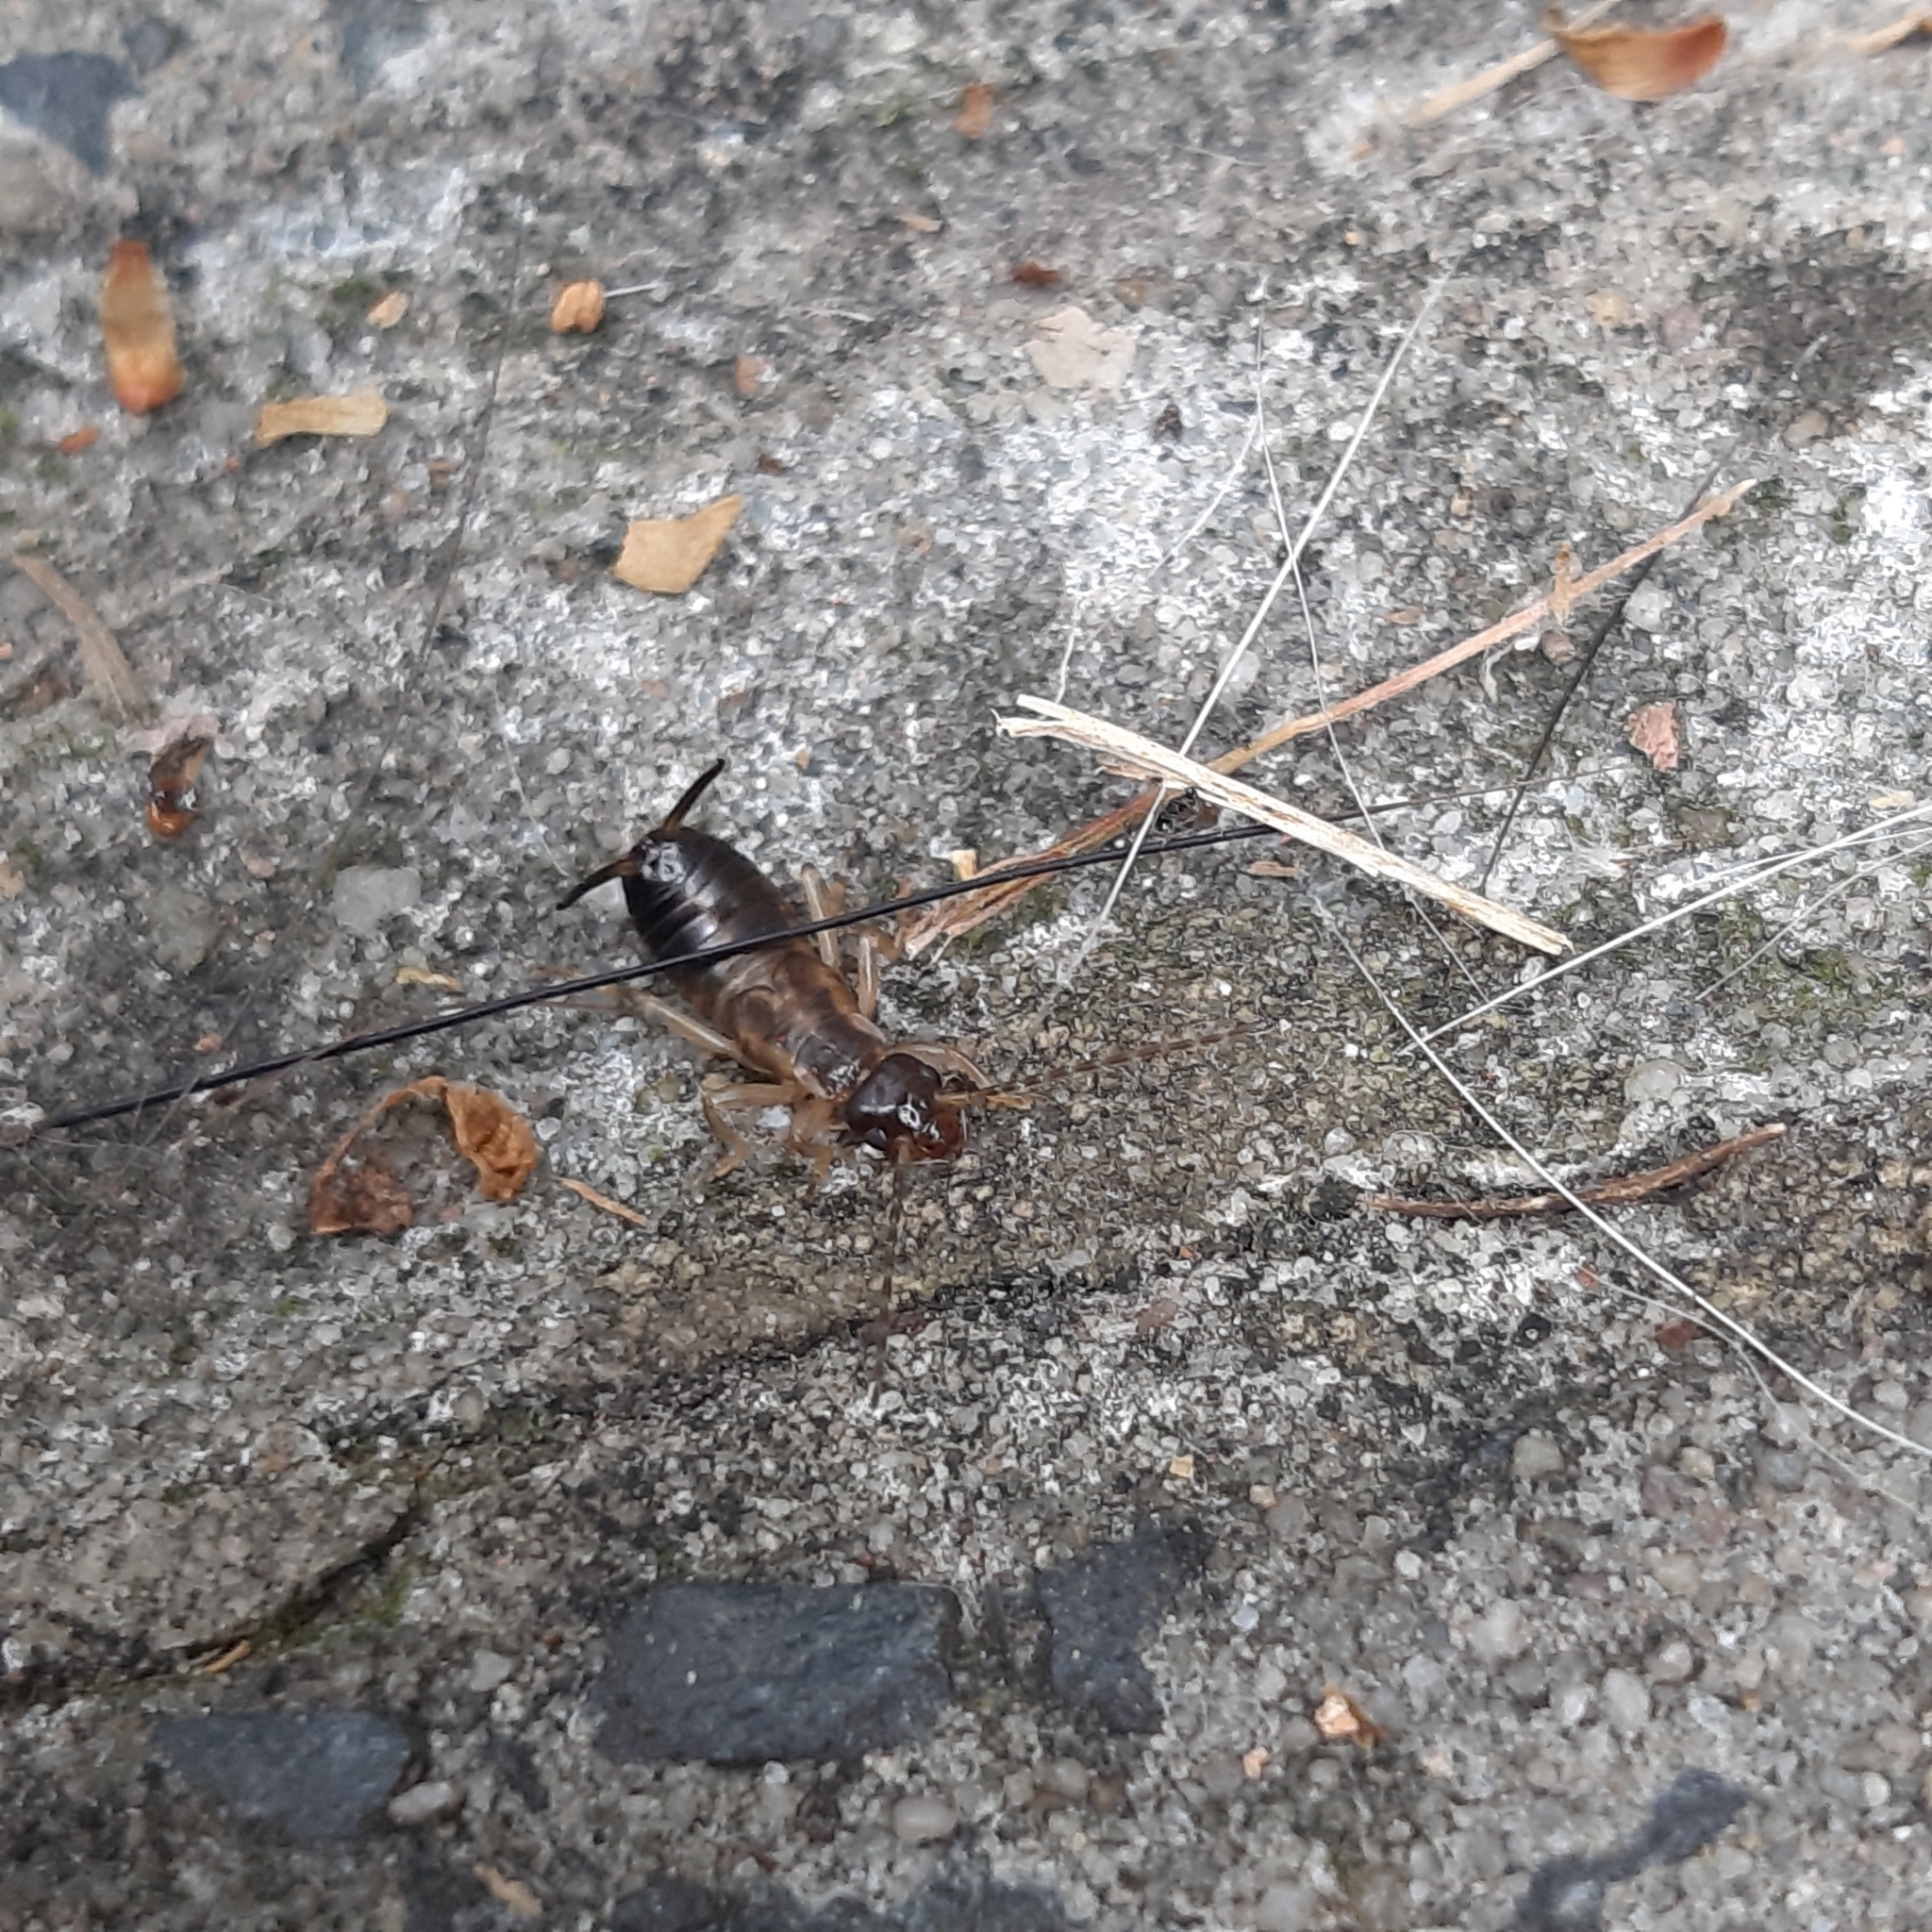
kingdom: Animalia
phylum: Arthropoda
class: Insecta
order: Dermaptera
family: Forficulidae
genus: Forficula
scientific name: Forficula
